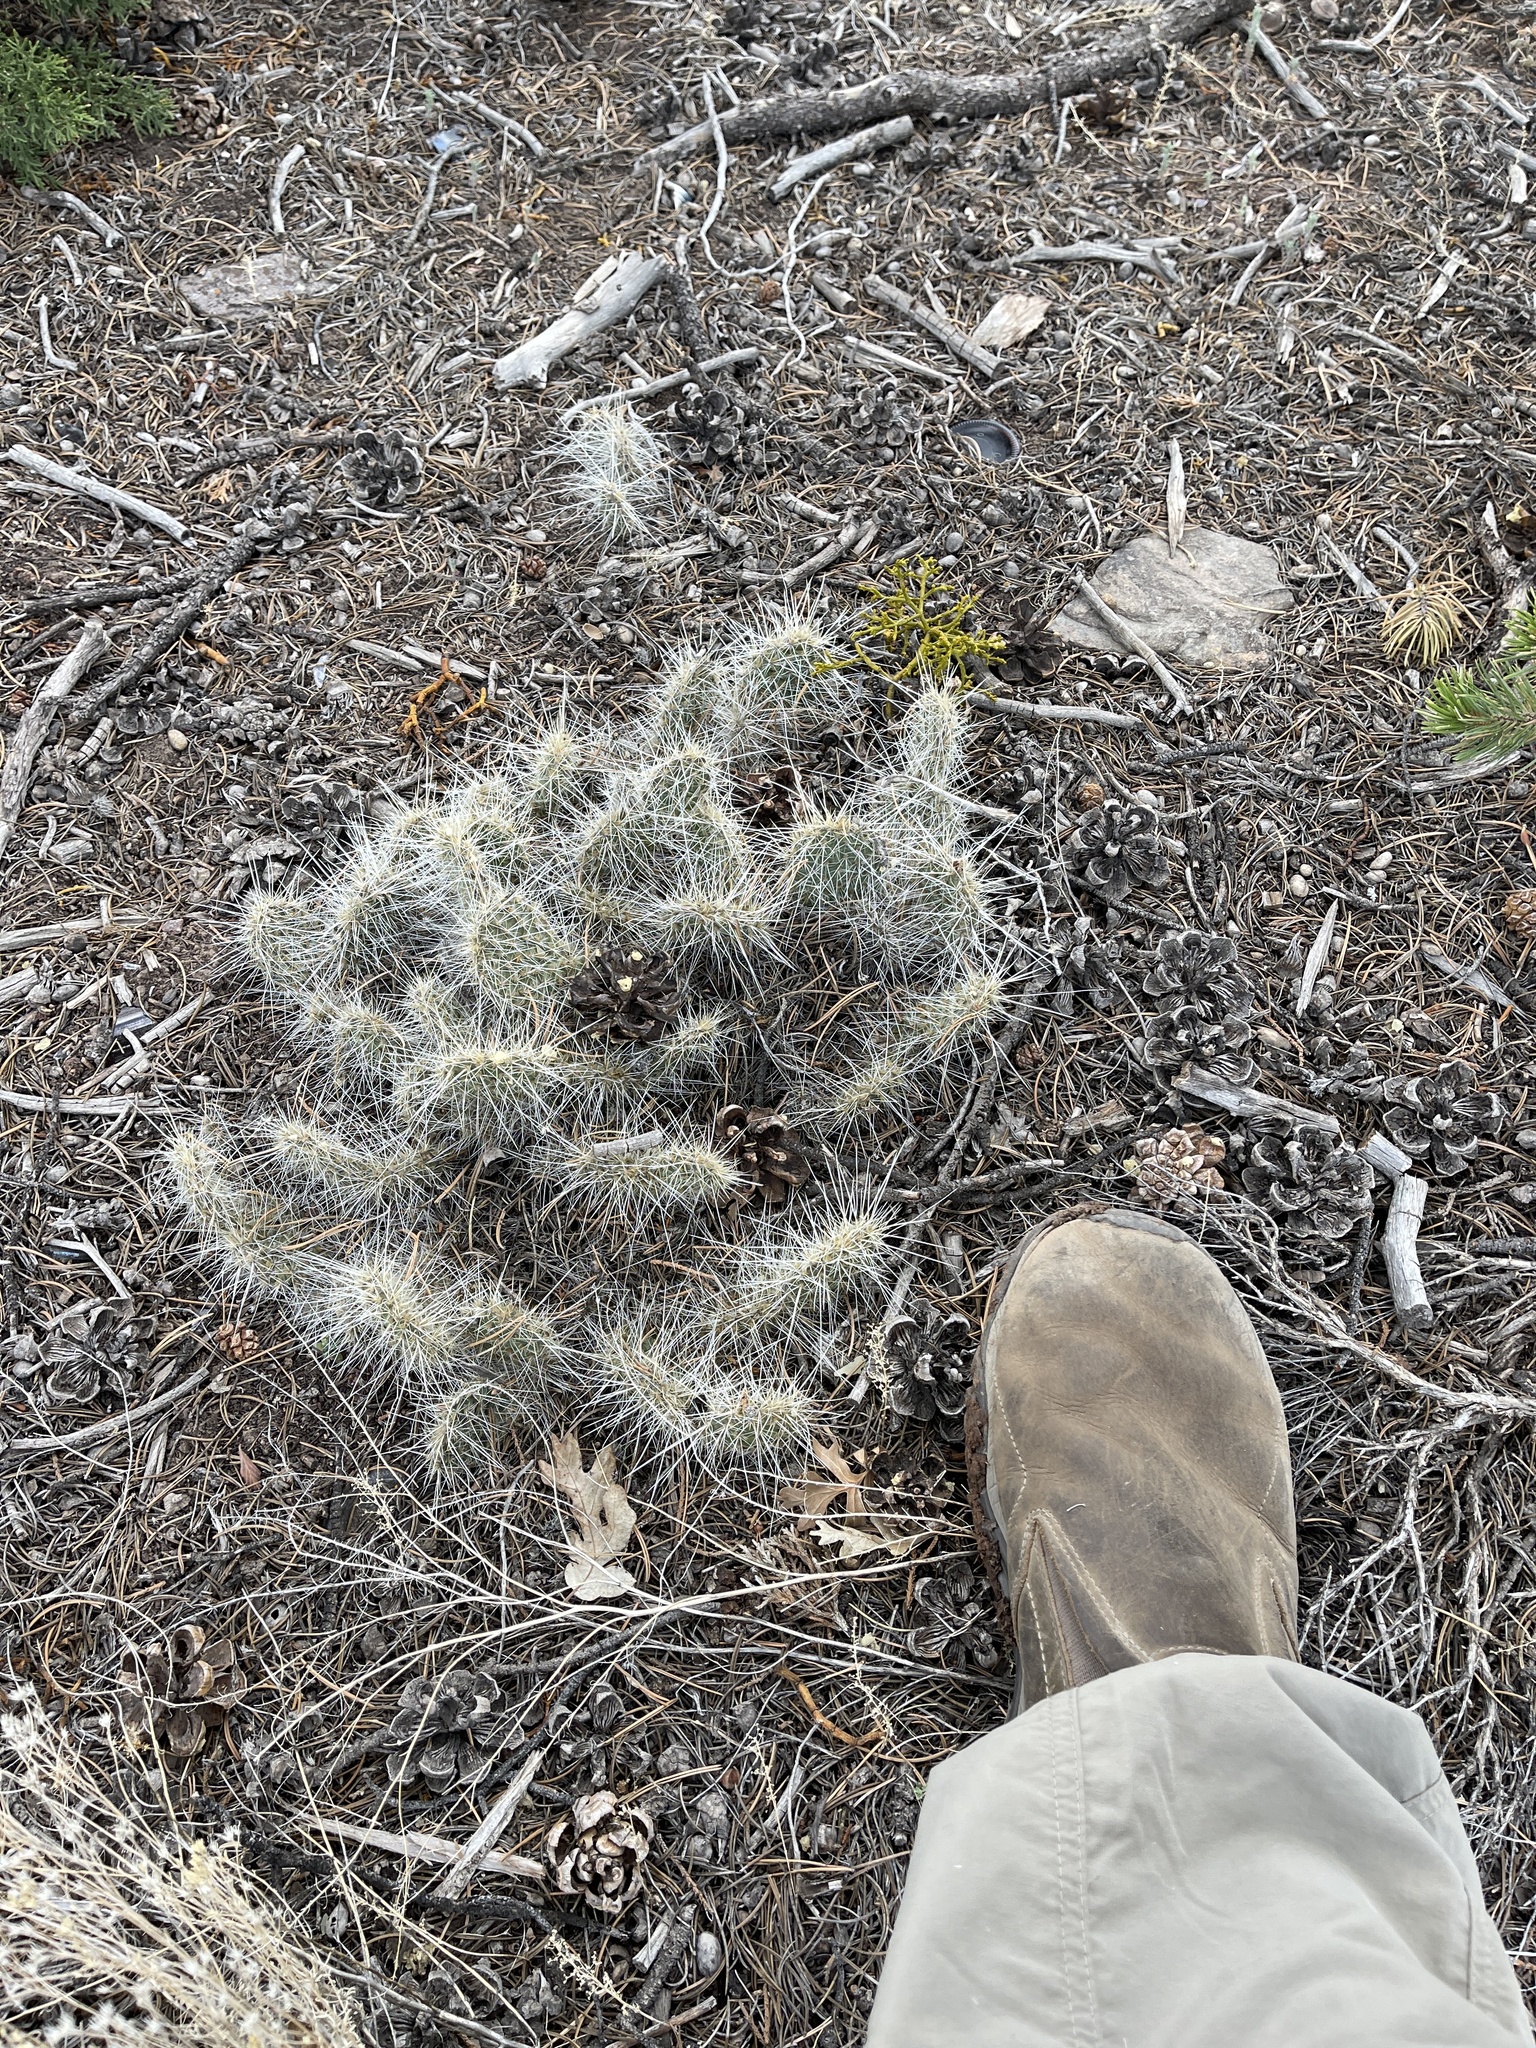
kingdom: Plantae
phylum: Tracheophyta
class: Magnoliopsida
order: Caryophyllales
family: Cactaceae
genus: Opuntia
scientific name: Opuntia polyacantha
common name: Plains prickly-pear
